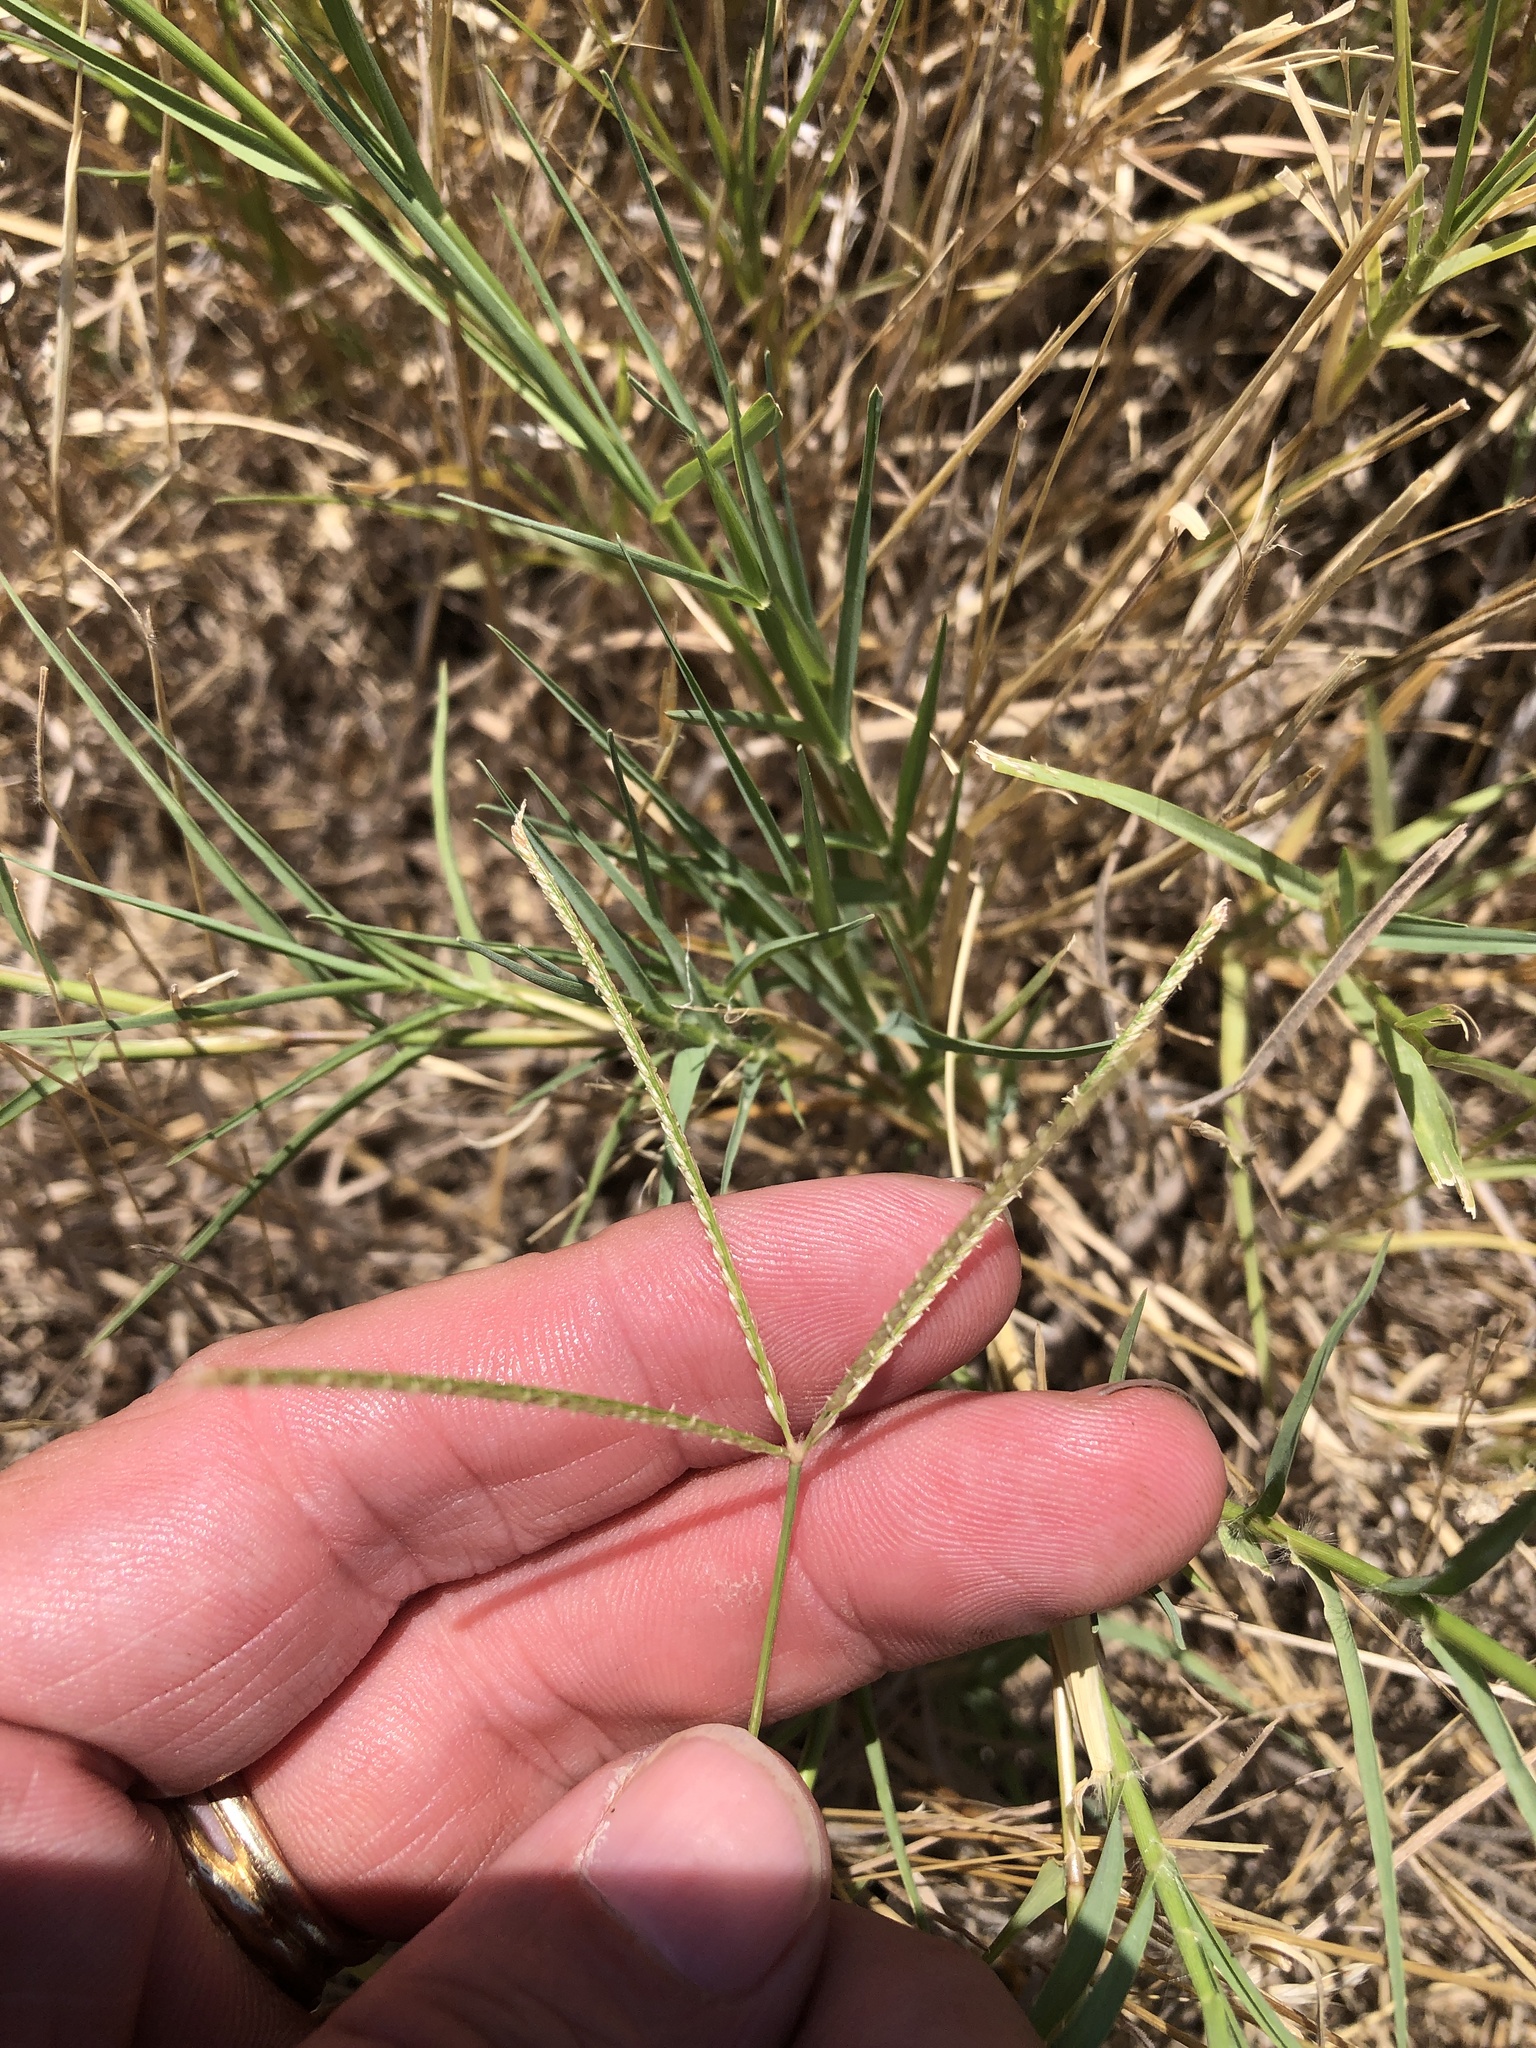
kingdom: Plantae
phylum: Tracheophyta
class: Liliopsida
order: Poales
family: Poaceae
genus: Cynodon
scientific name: Cynodon dactylon
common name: Bermuda grass
